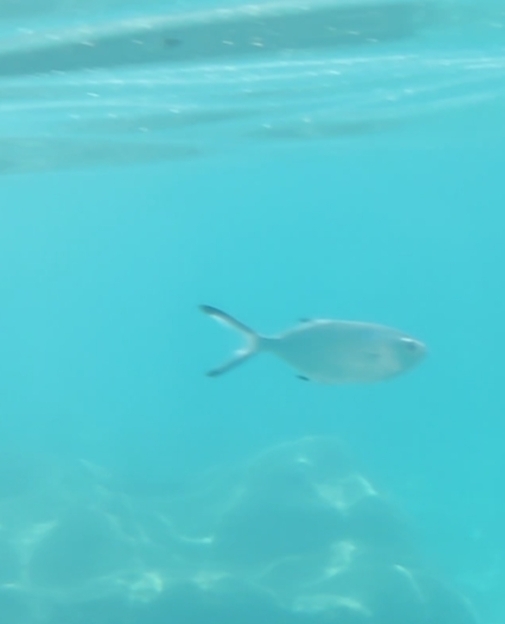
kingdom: Animalia
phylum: Chordata
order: Perciformes
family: Carangidae
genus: Trachinotus
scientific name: Trachinotus ovatus
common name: Pompano
